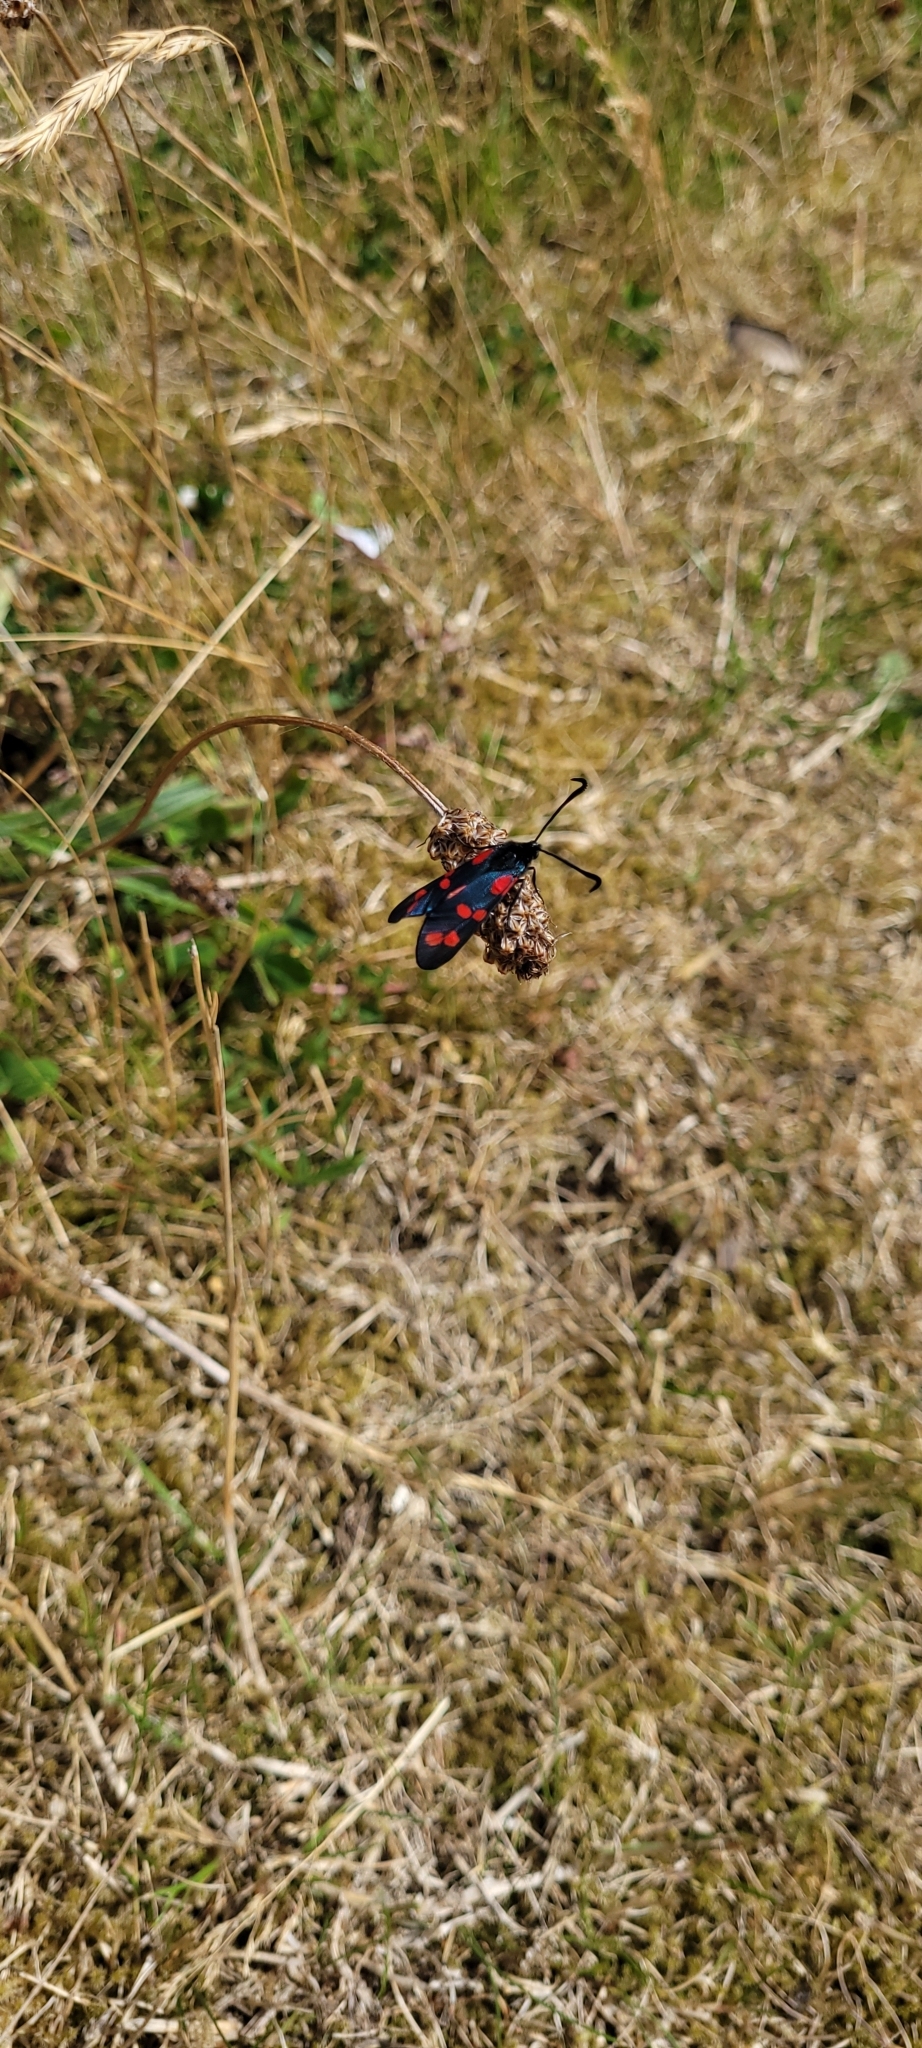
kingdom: Animalia
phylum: Arthropoda
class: Insecta
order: Lepidoptera
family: Zygaenidae
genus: Zygaena
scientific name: Zygaena filipendulae
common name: Six-spot burnet
